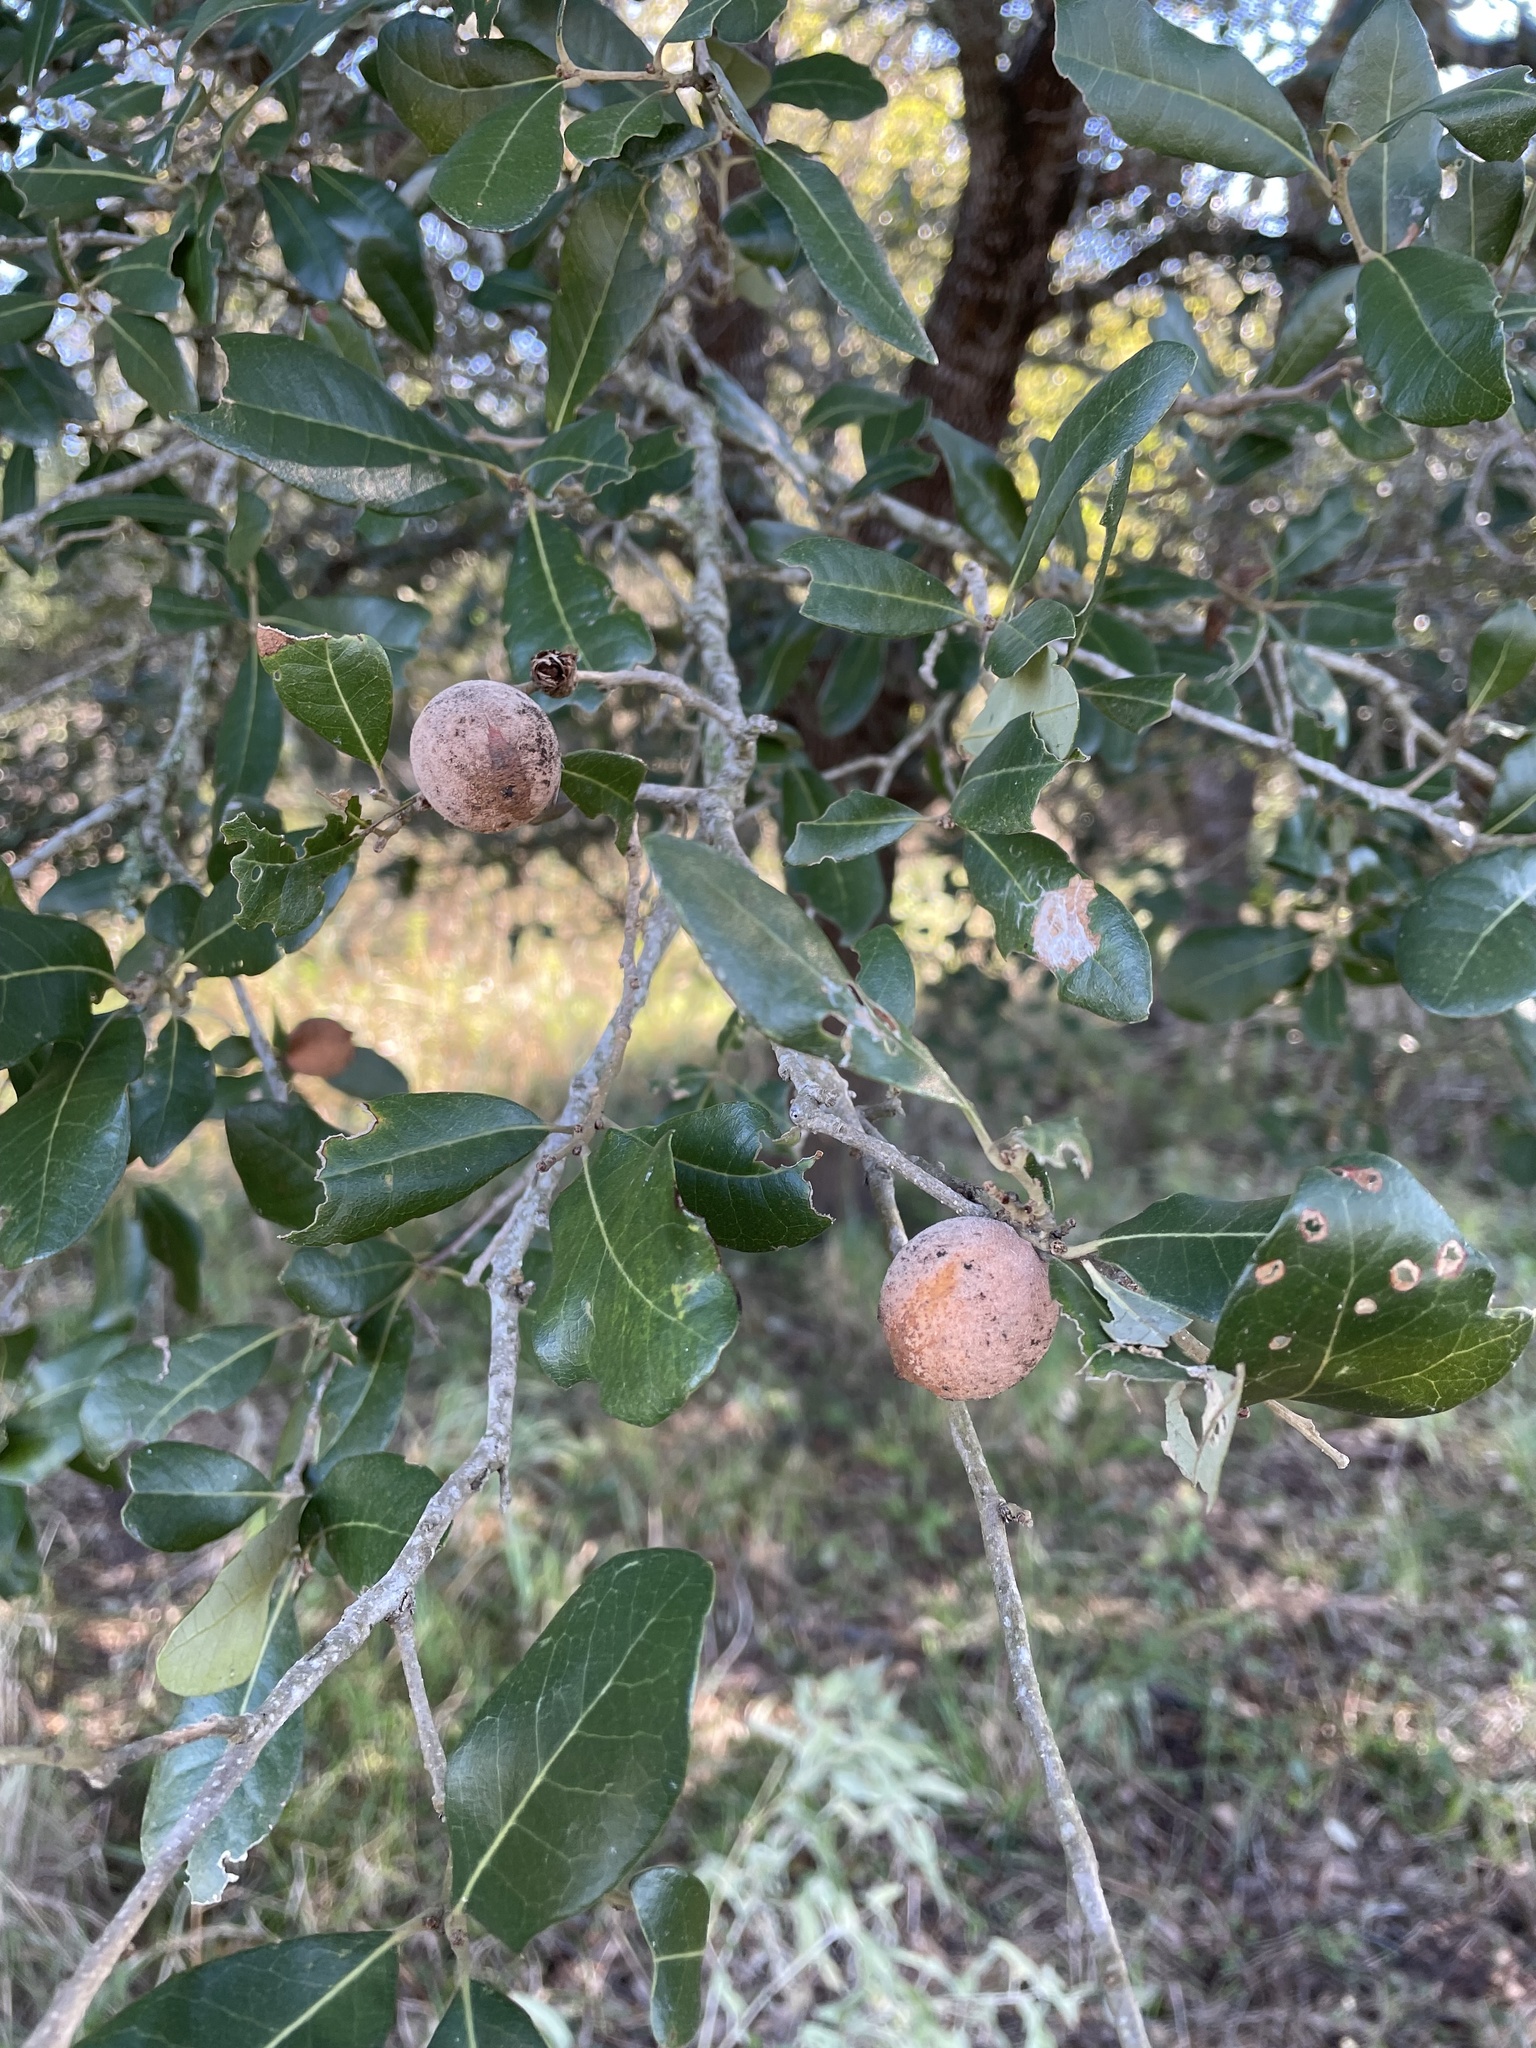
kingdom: Animalia
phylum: Arthropoda
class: Insecta
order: Hymenoptera
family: Cynipidae
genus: Disholcaspis
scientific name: Disholcaspis
